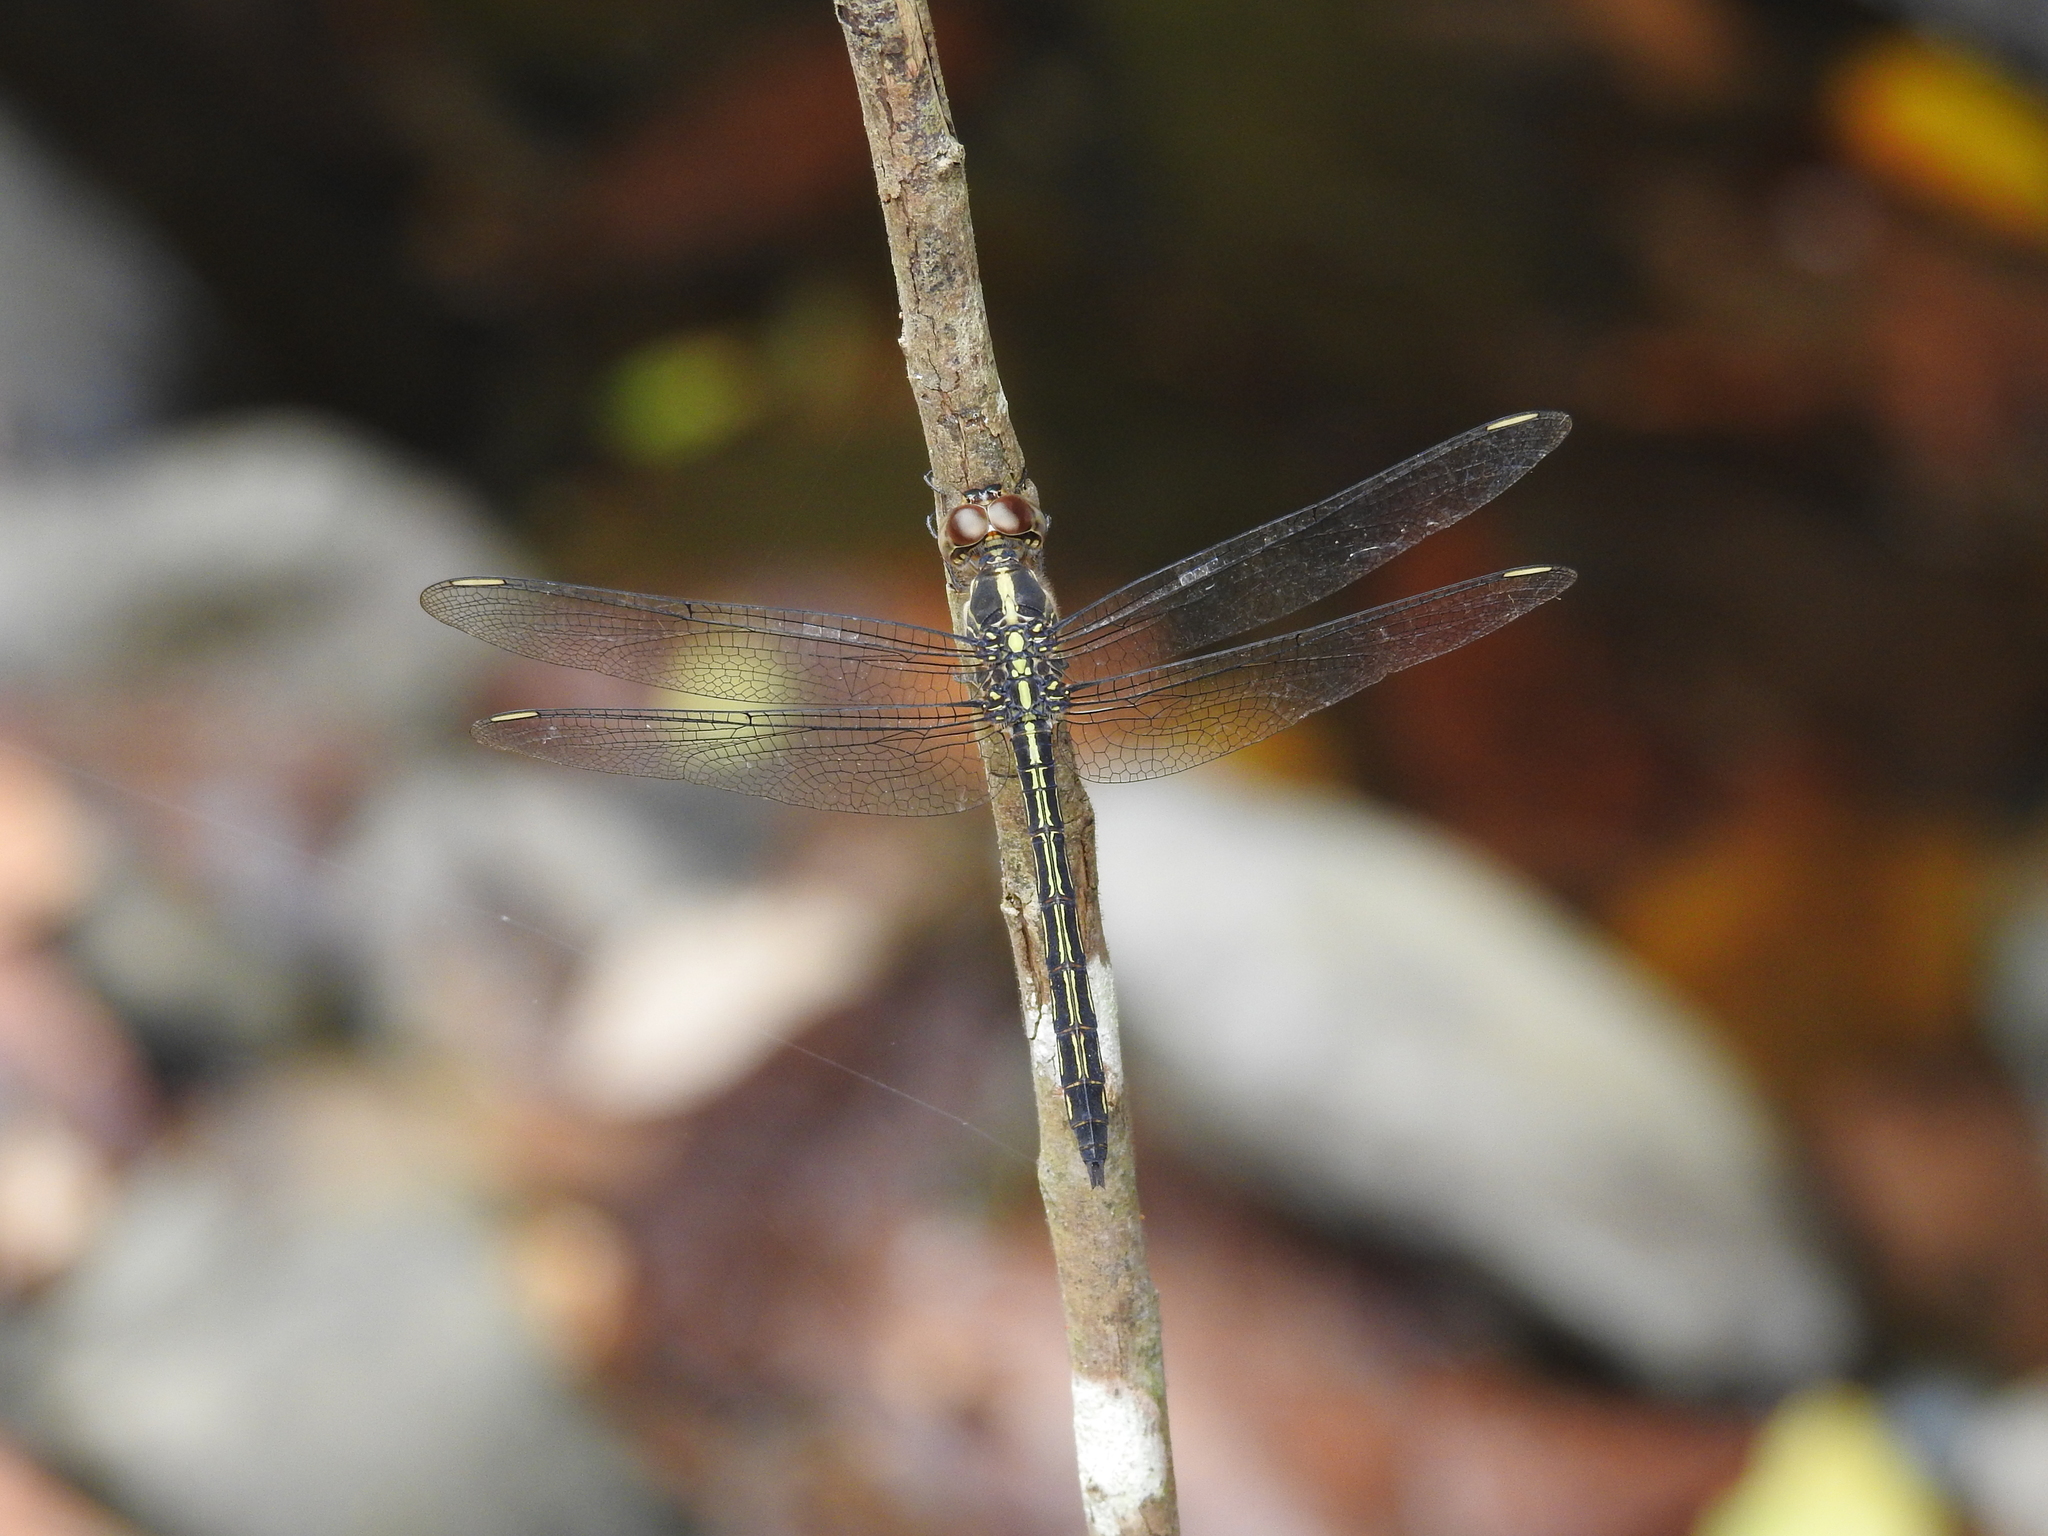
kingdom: Animalia
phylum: Arthropoda
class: Insecta
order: Odonata
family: Libellulidae
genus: Cratilla
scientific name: Cratilla lineata
